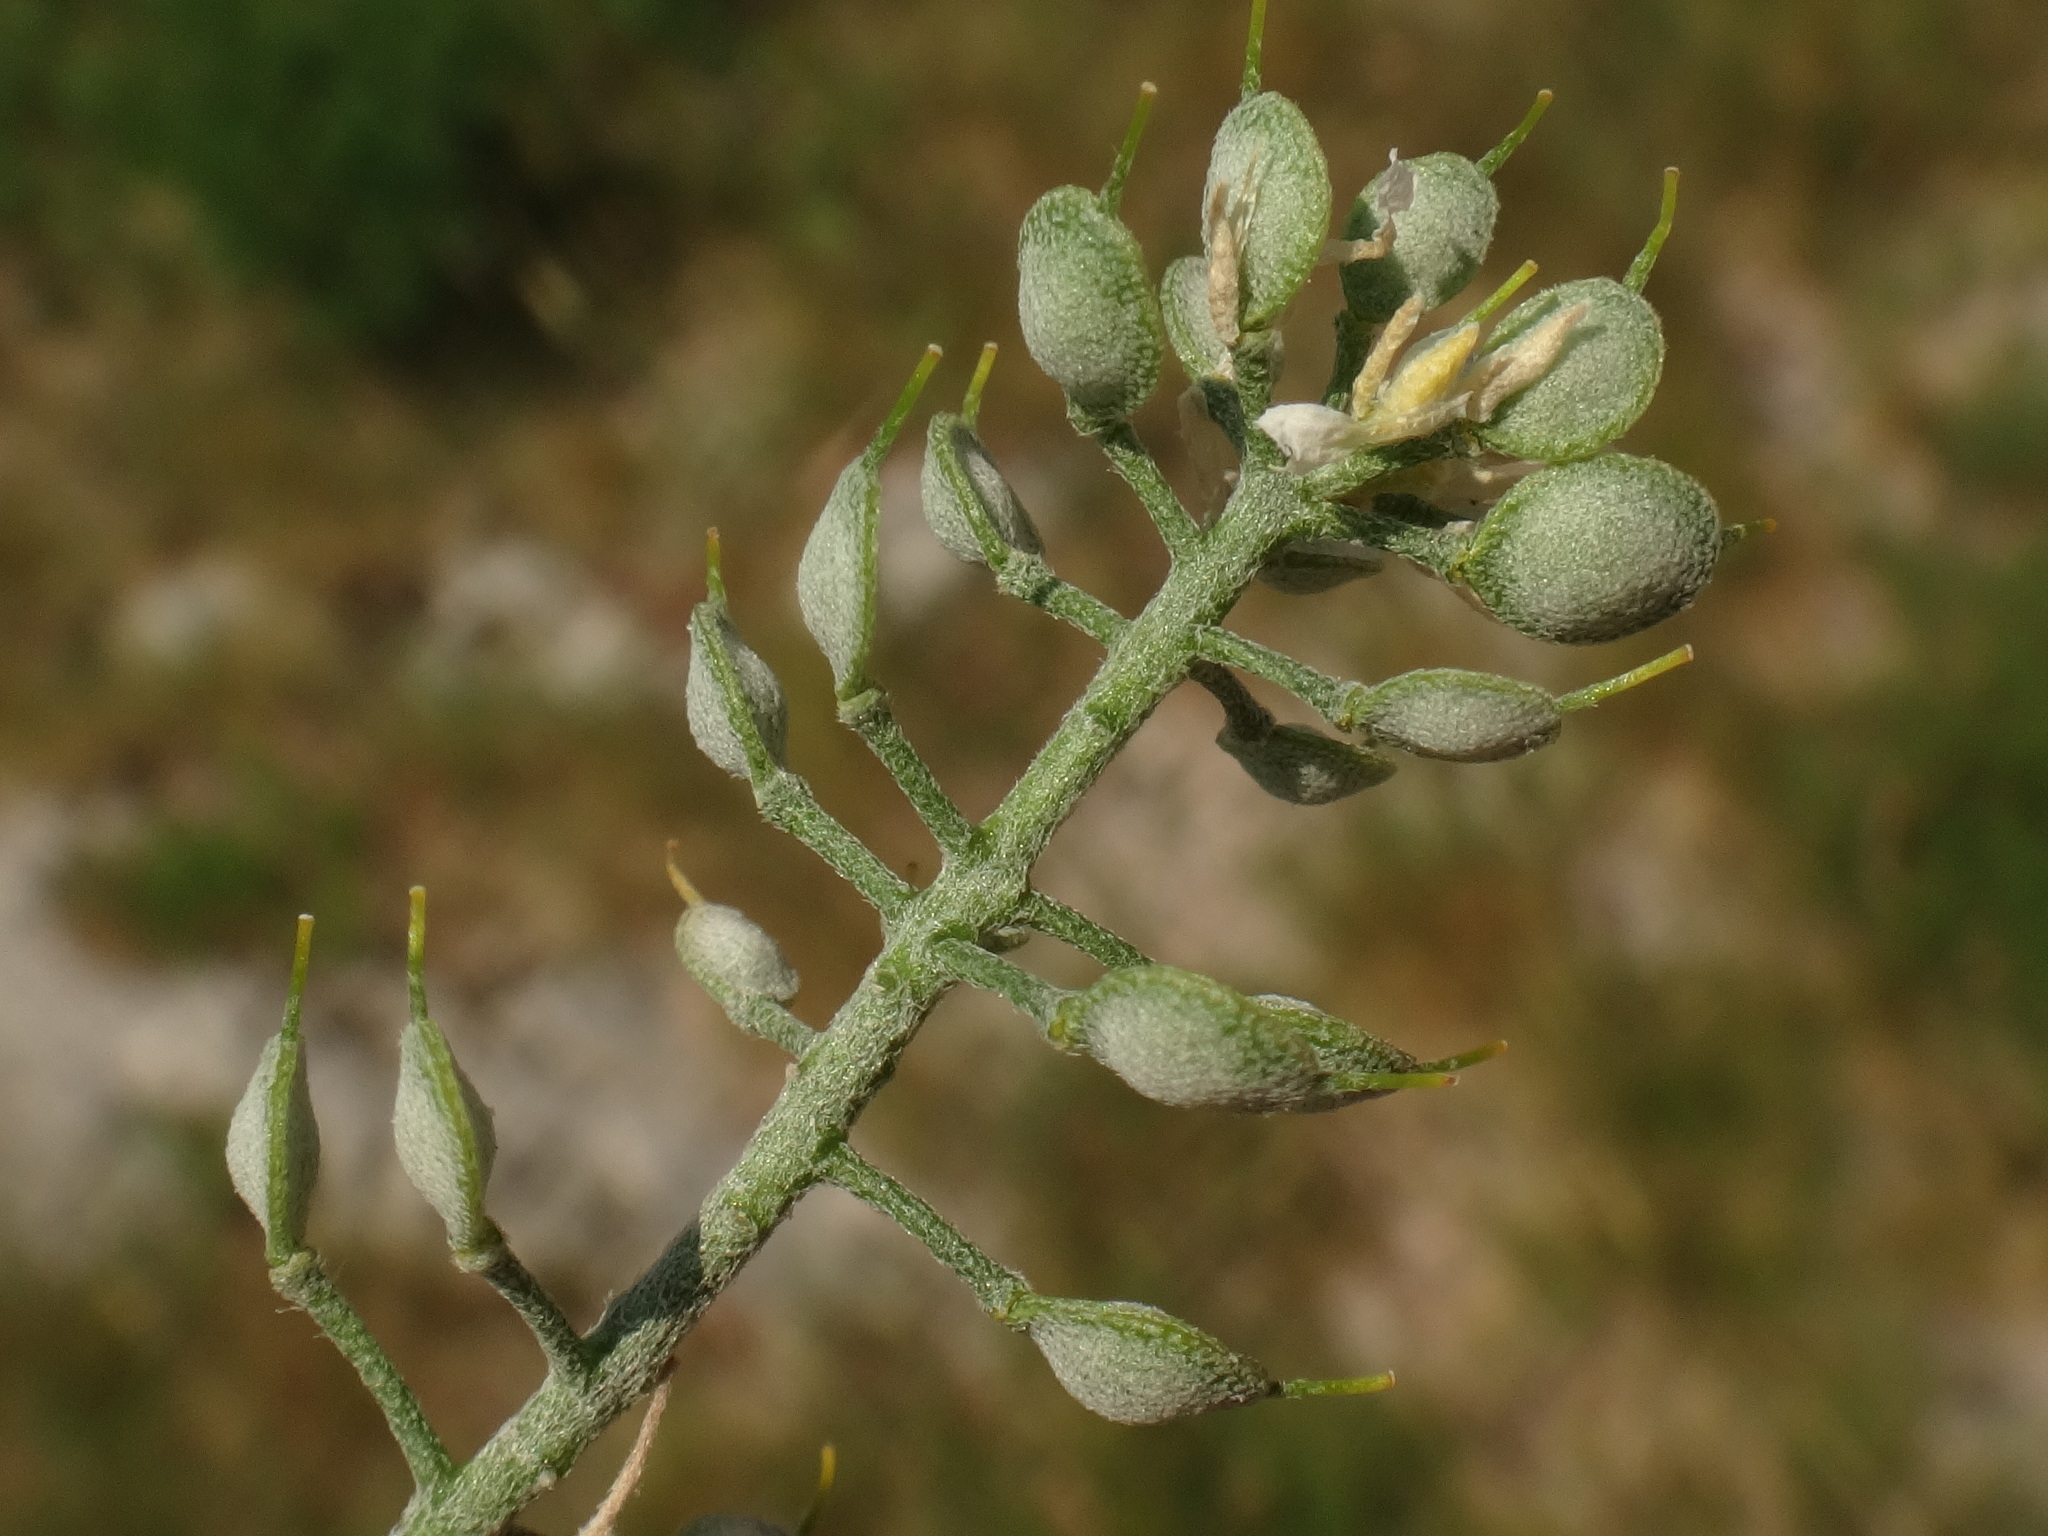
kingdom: Plantae
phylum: Tracheophyta
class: Magnoliopsida
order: Brassicales
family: Brassicaceae
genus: Alyssum
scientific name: Alyssum austrodalmaticum
